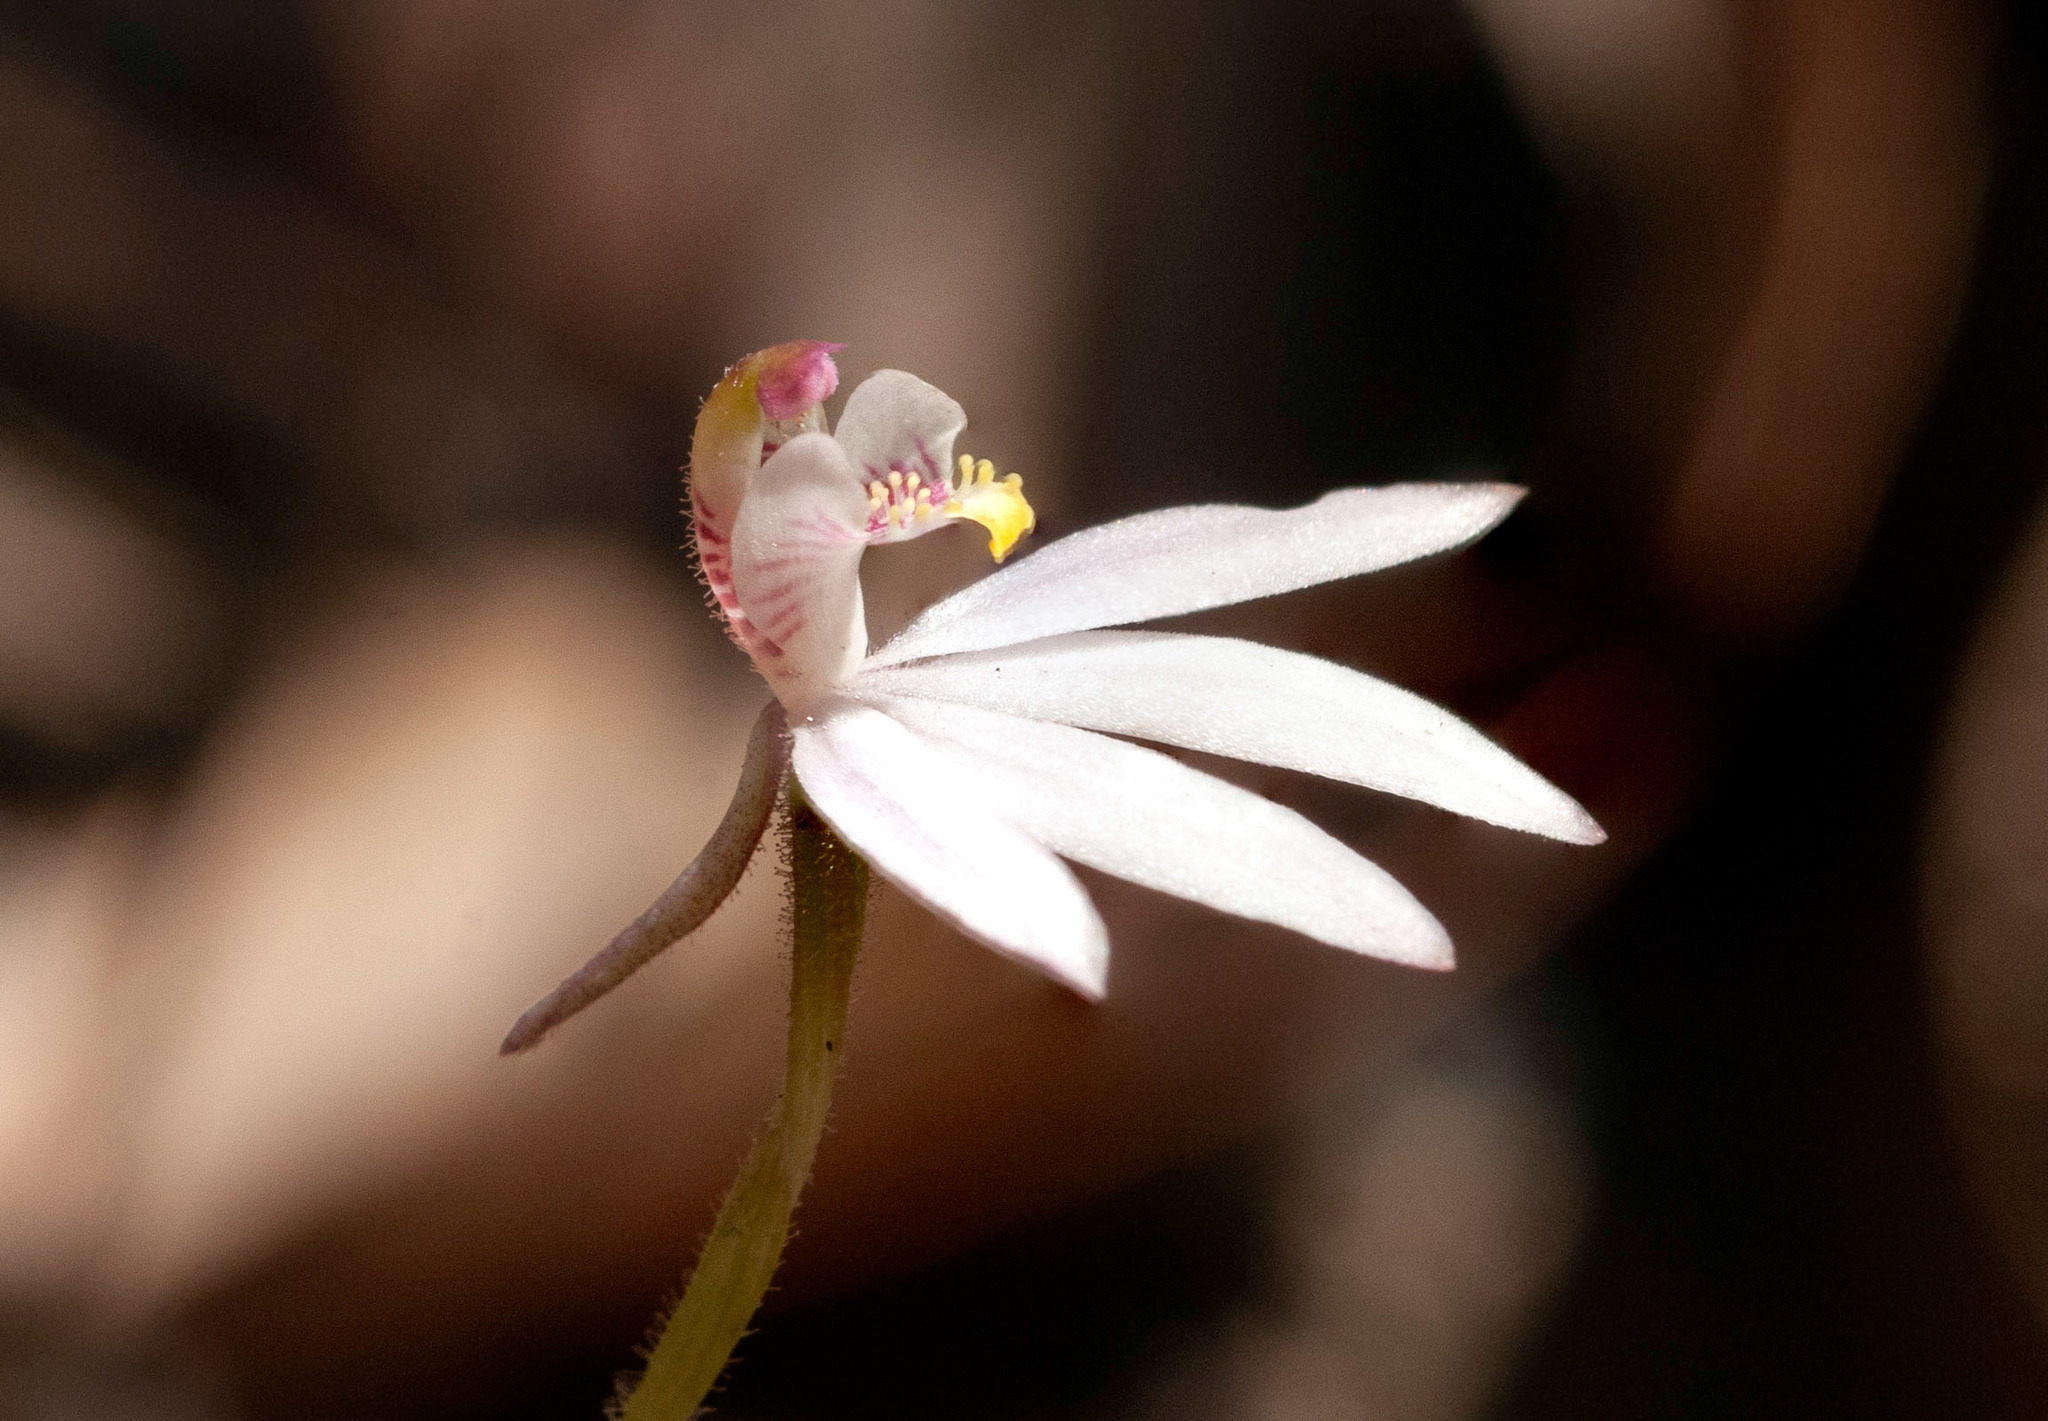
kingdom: Plantae
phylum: Tracheophyta
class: Liliopsida
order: Asparagales
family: Orchidaceae
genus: Caladenia
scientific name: Caladenia fuscata
